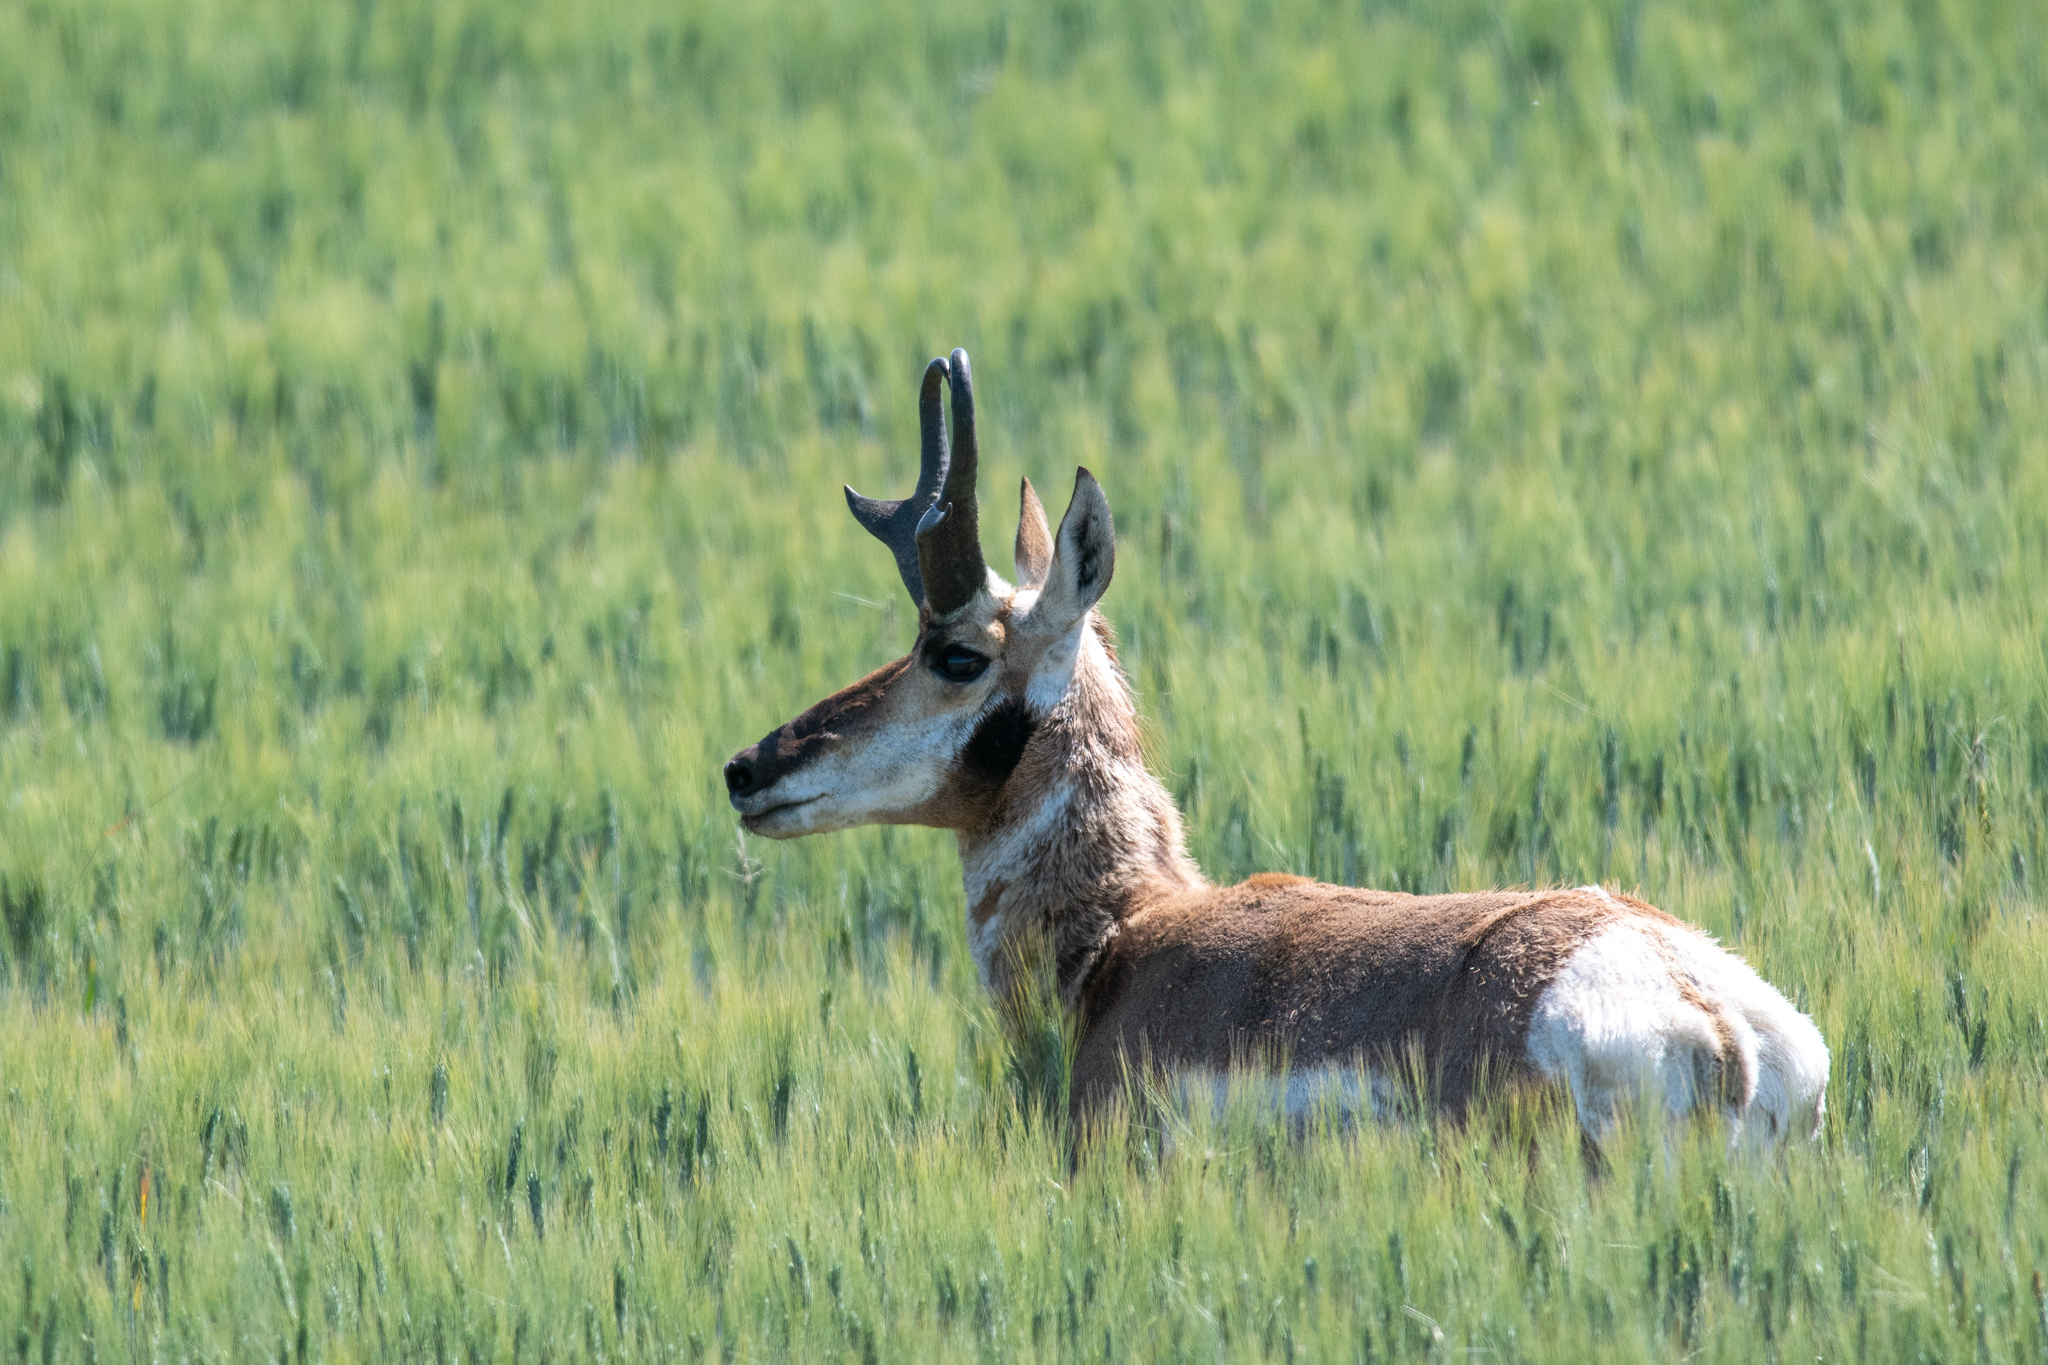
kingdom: Animalia
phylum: Chordata
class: Mammalia
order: Artiodactyla
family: Antilocapridae
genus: Antilocapra
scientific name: Antilocapra americana
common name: Pronghorn
